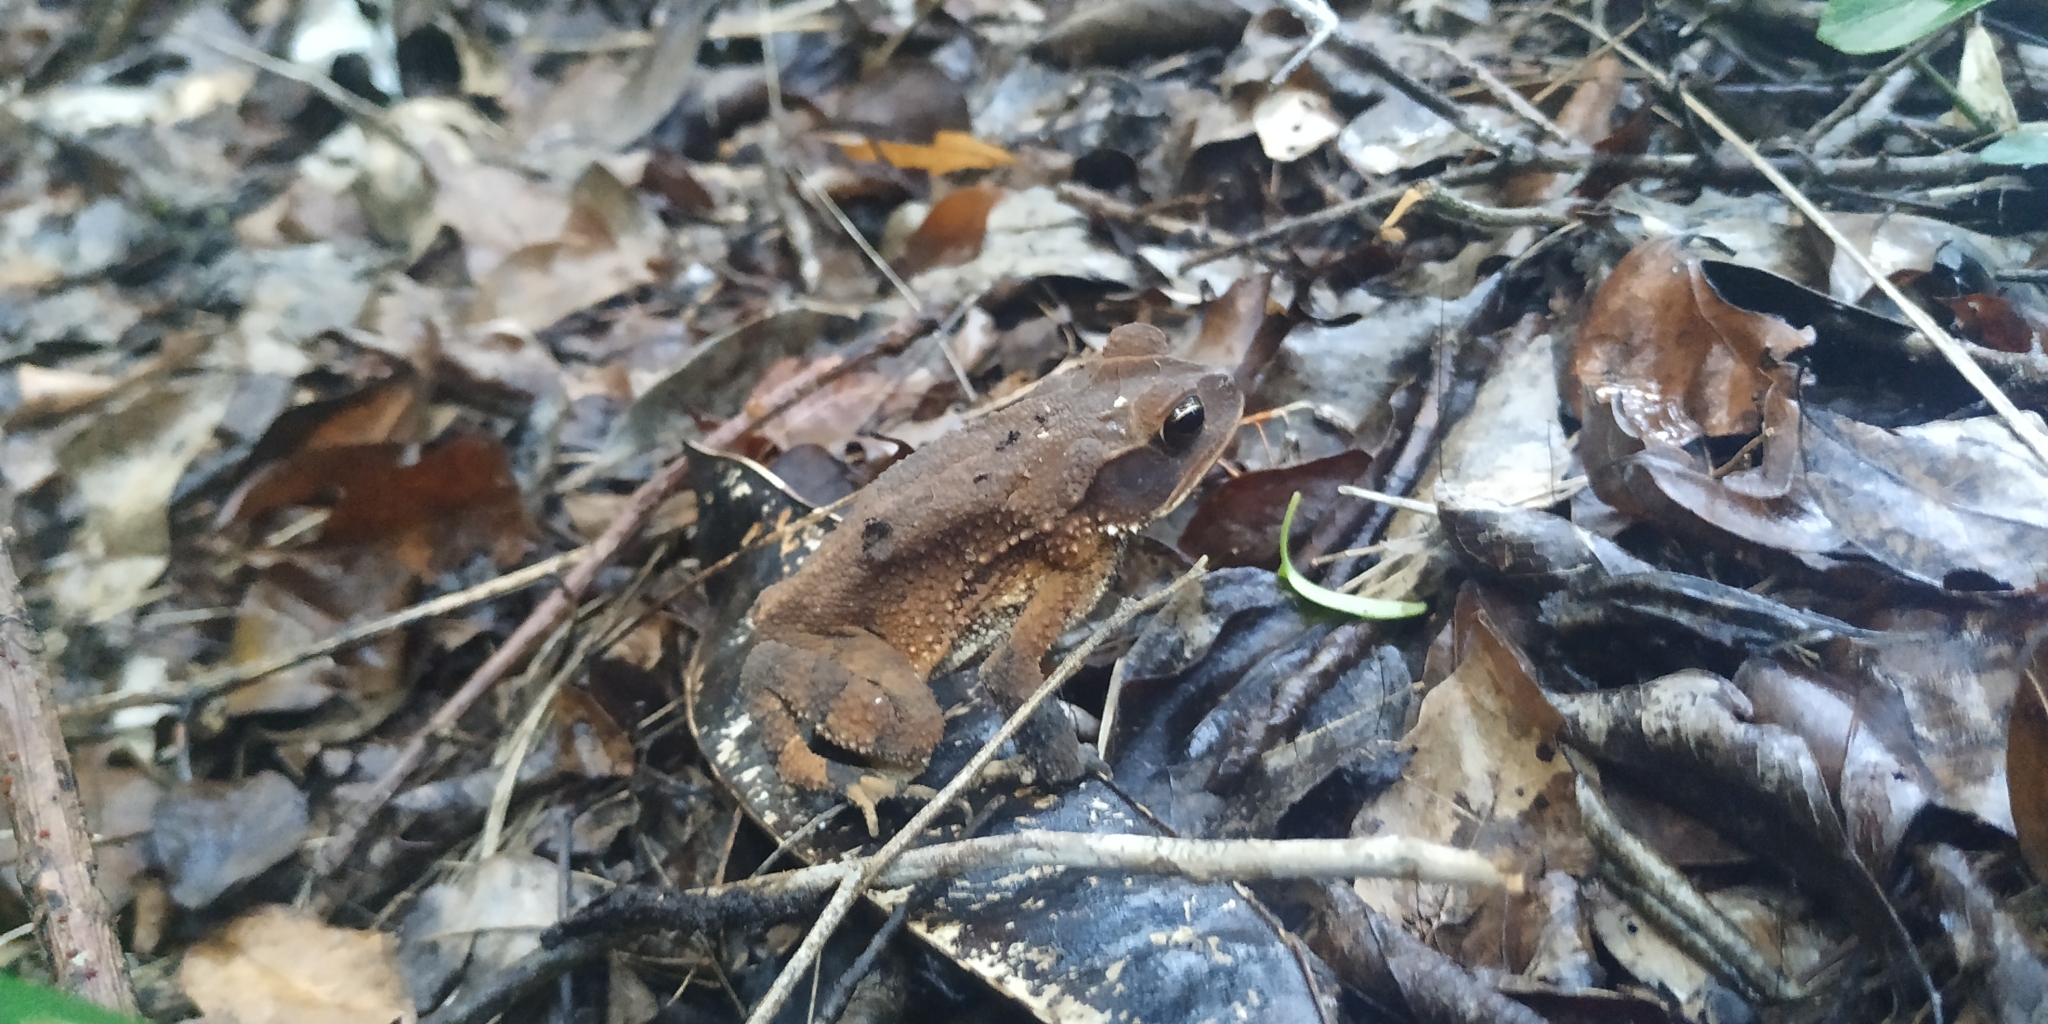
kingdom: Animalia
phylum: Chordata
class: Amphibia
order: Anura
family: Bufonidae
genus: Incilius
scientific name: Incilius valliceps
